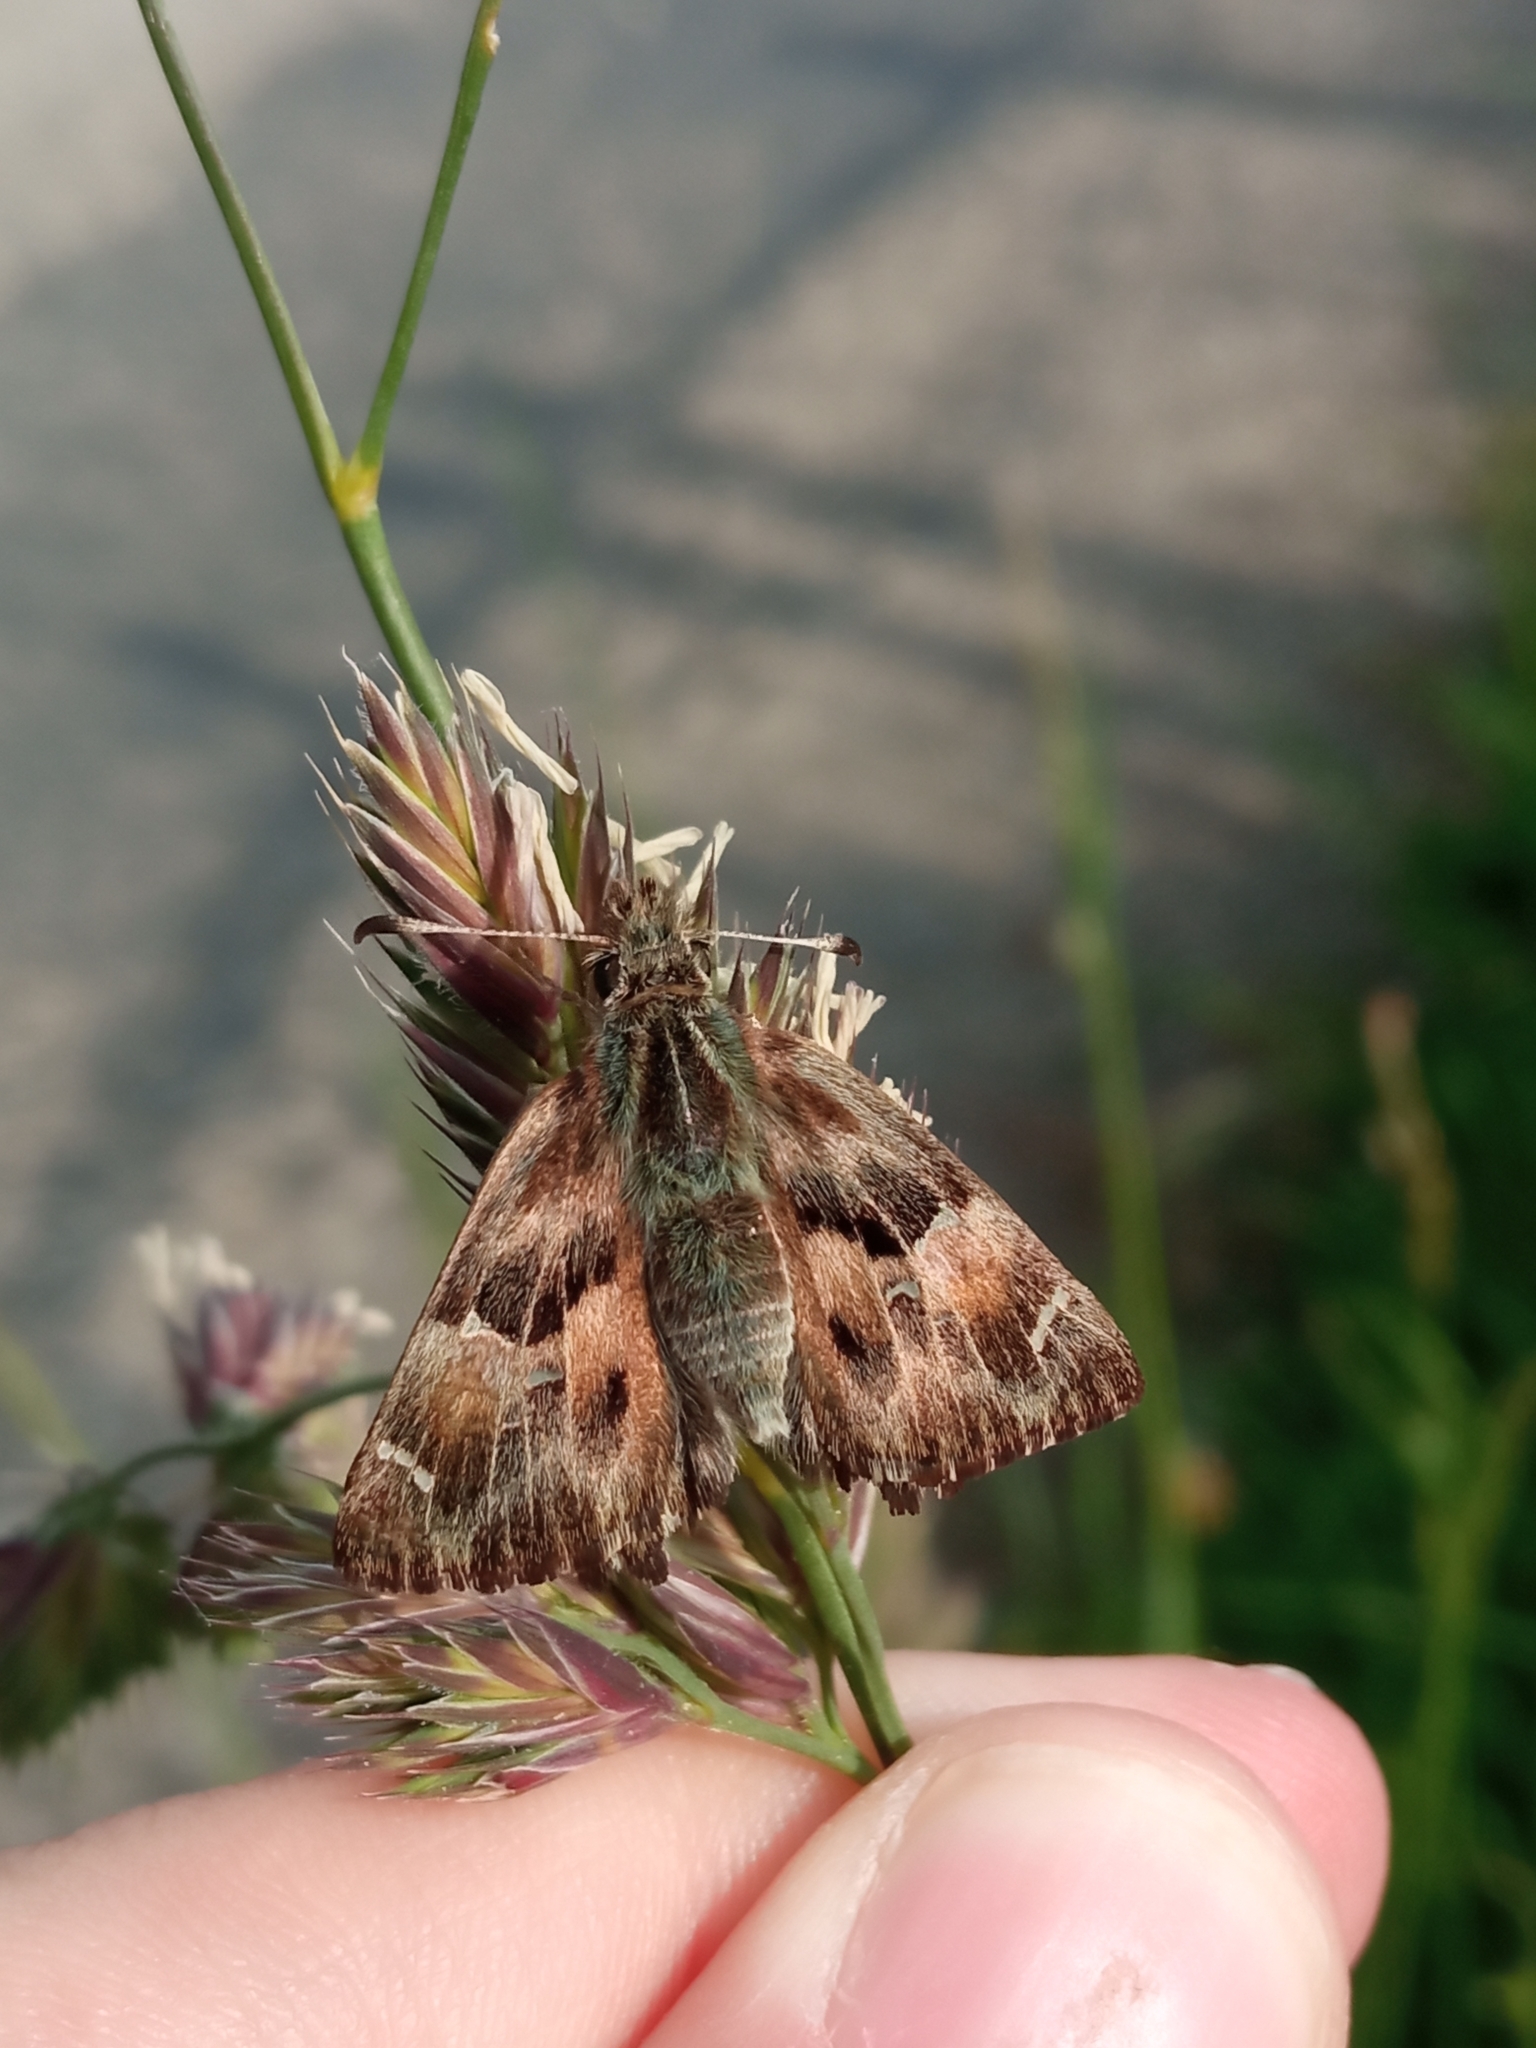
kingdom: Animalia
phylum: Arthropoda
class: Insecta
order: Lepidoptera
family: Hesperiidae
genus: Carcharodus
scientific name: Carcharodus alceae
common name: Mallow skipper
